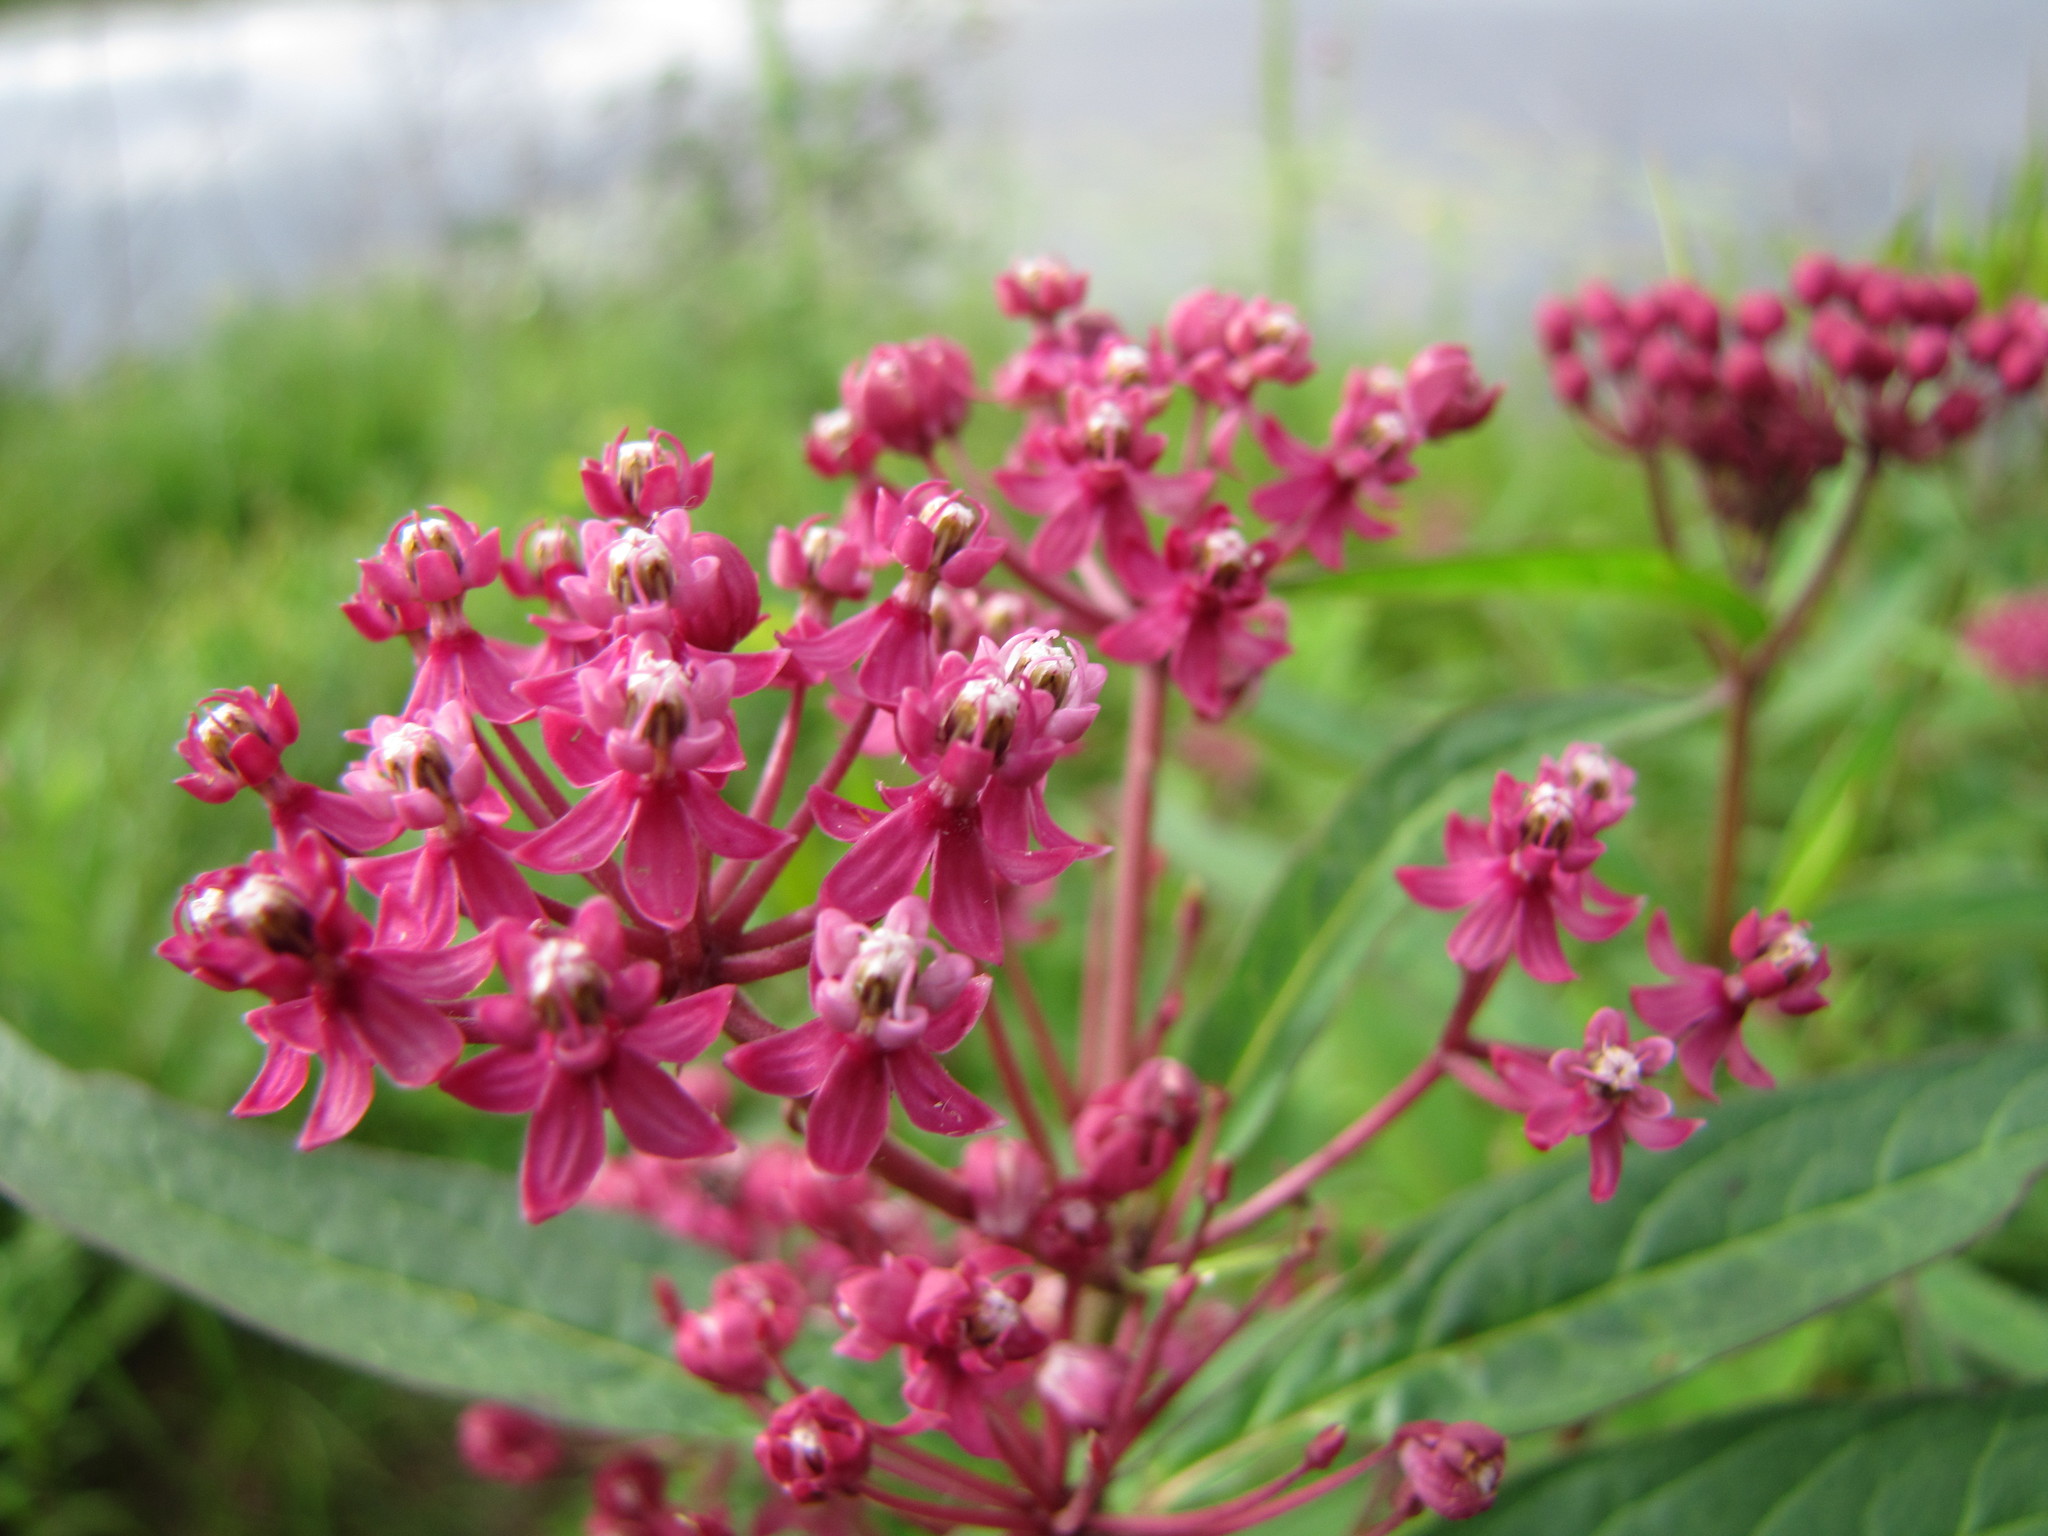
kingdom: Plantae
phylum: Tracheophyta
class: Magnoliopsida
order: Gentianales
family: Apocynaceae
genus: Asclepias
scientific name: Asclepias incarnata
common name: Swamp milkweed
